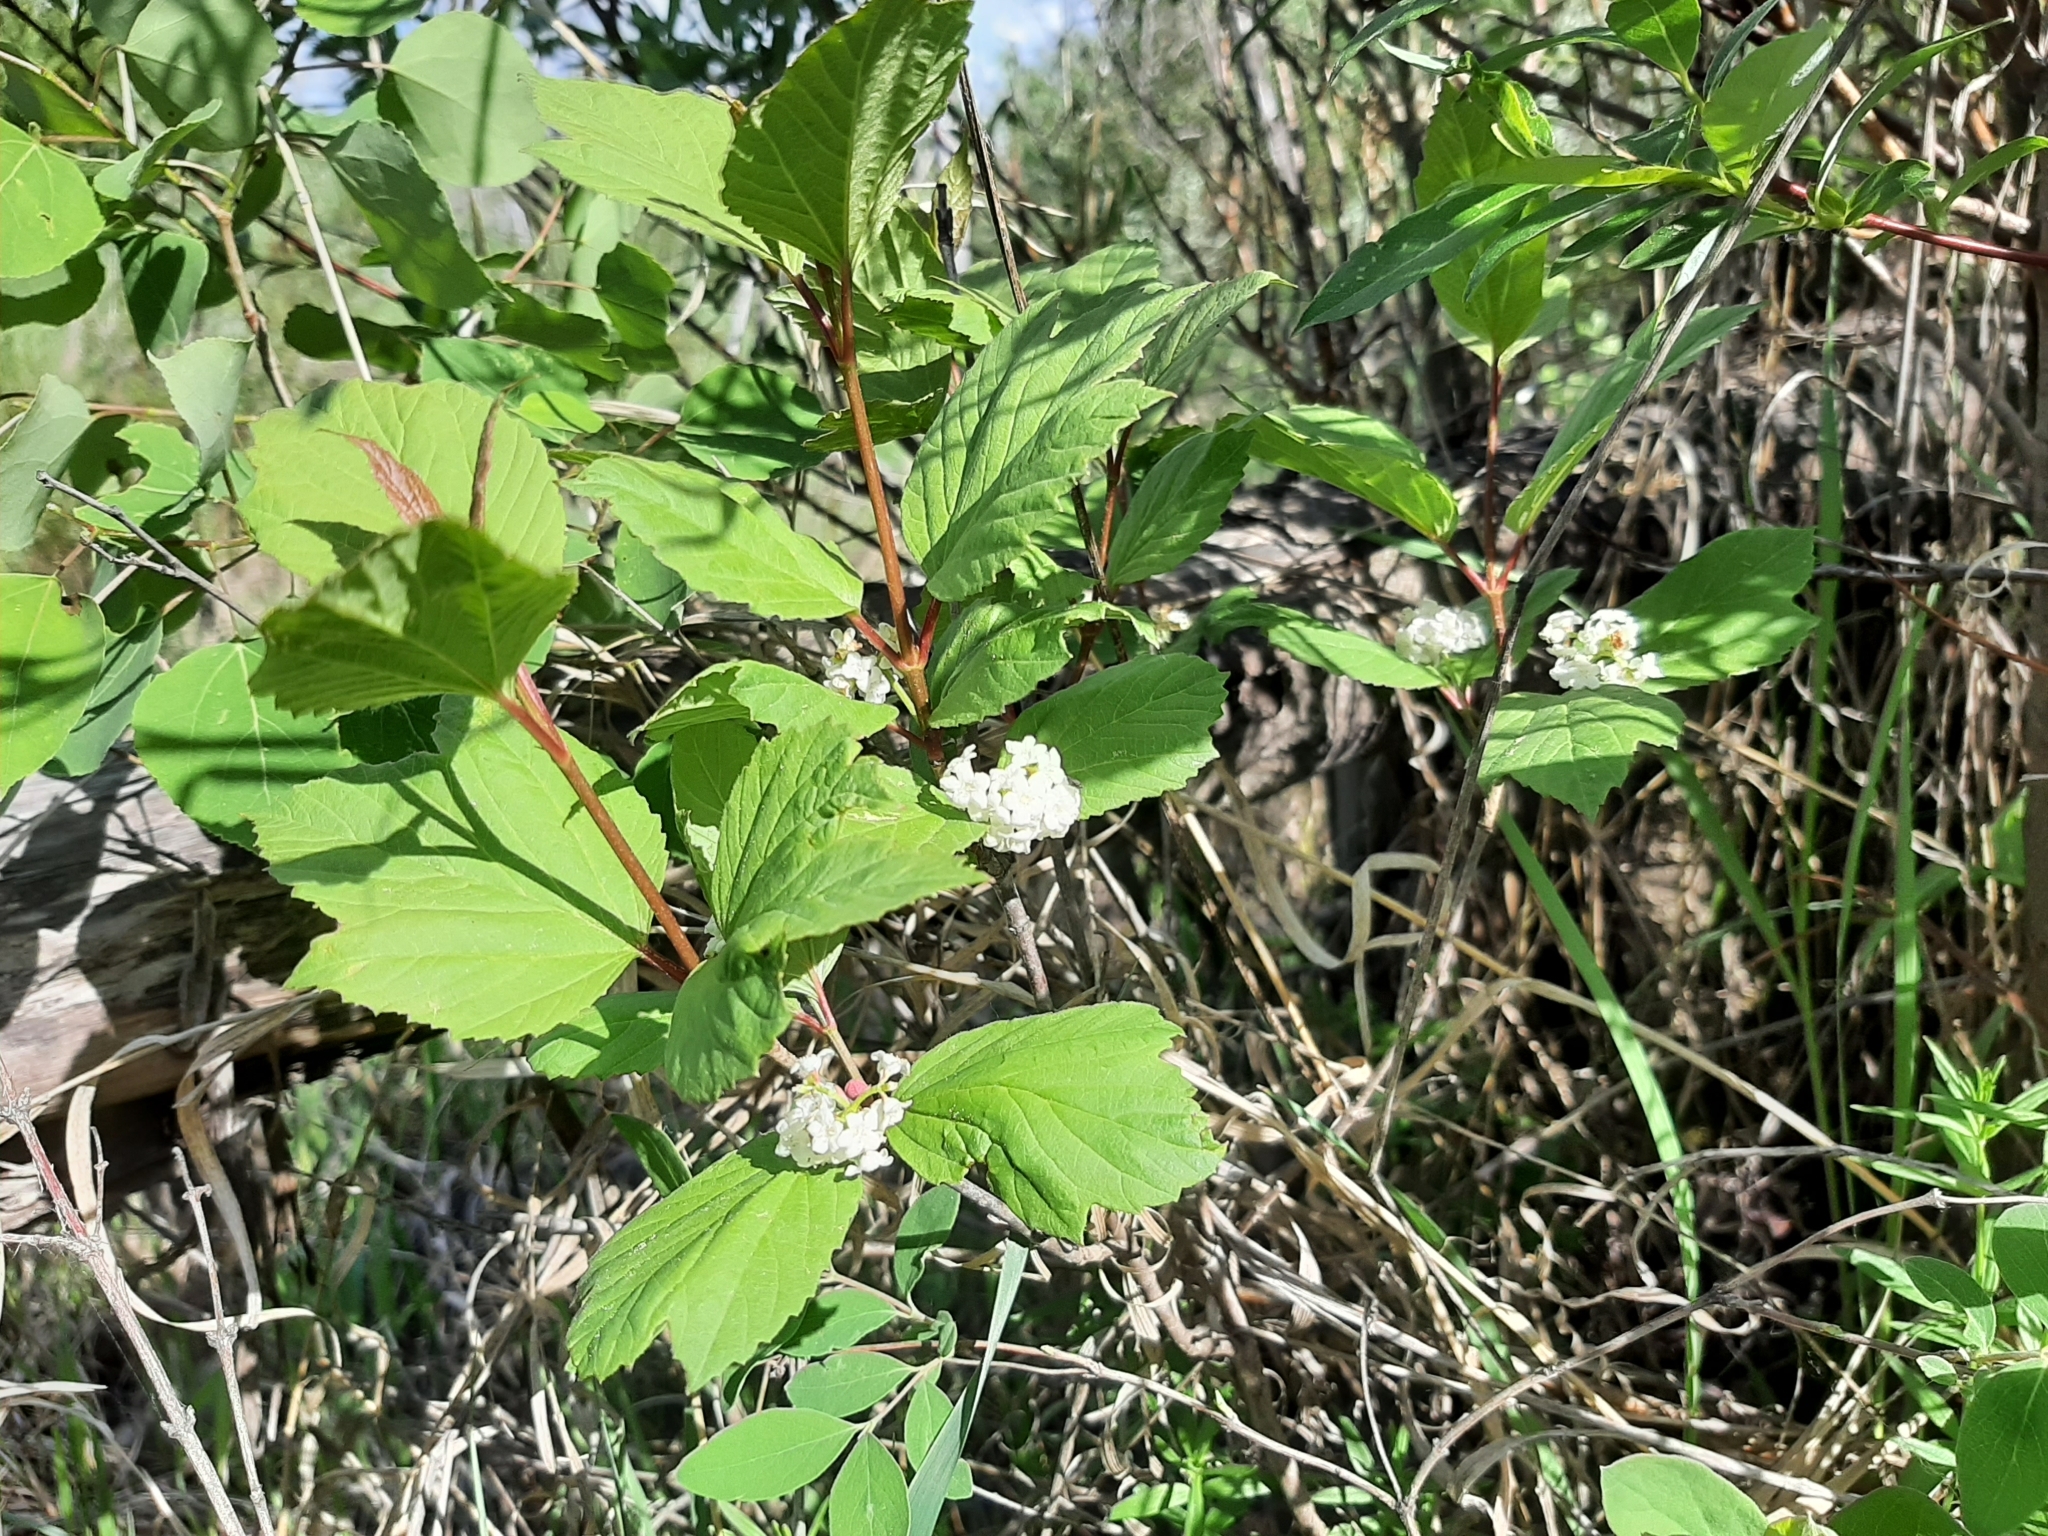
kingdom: Plantae
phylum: Tracheophyta
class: Magnoliopsida
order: Dipsacales
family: Viburnaceae
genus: Viburnum
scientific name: Viburnum edule
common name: Mooseberry
